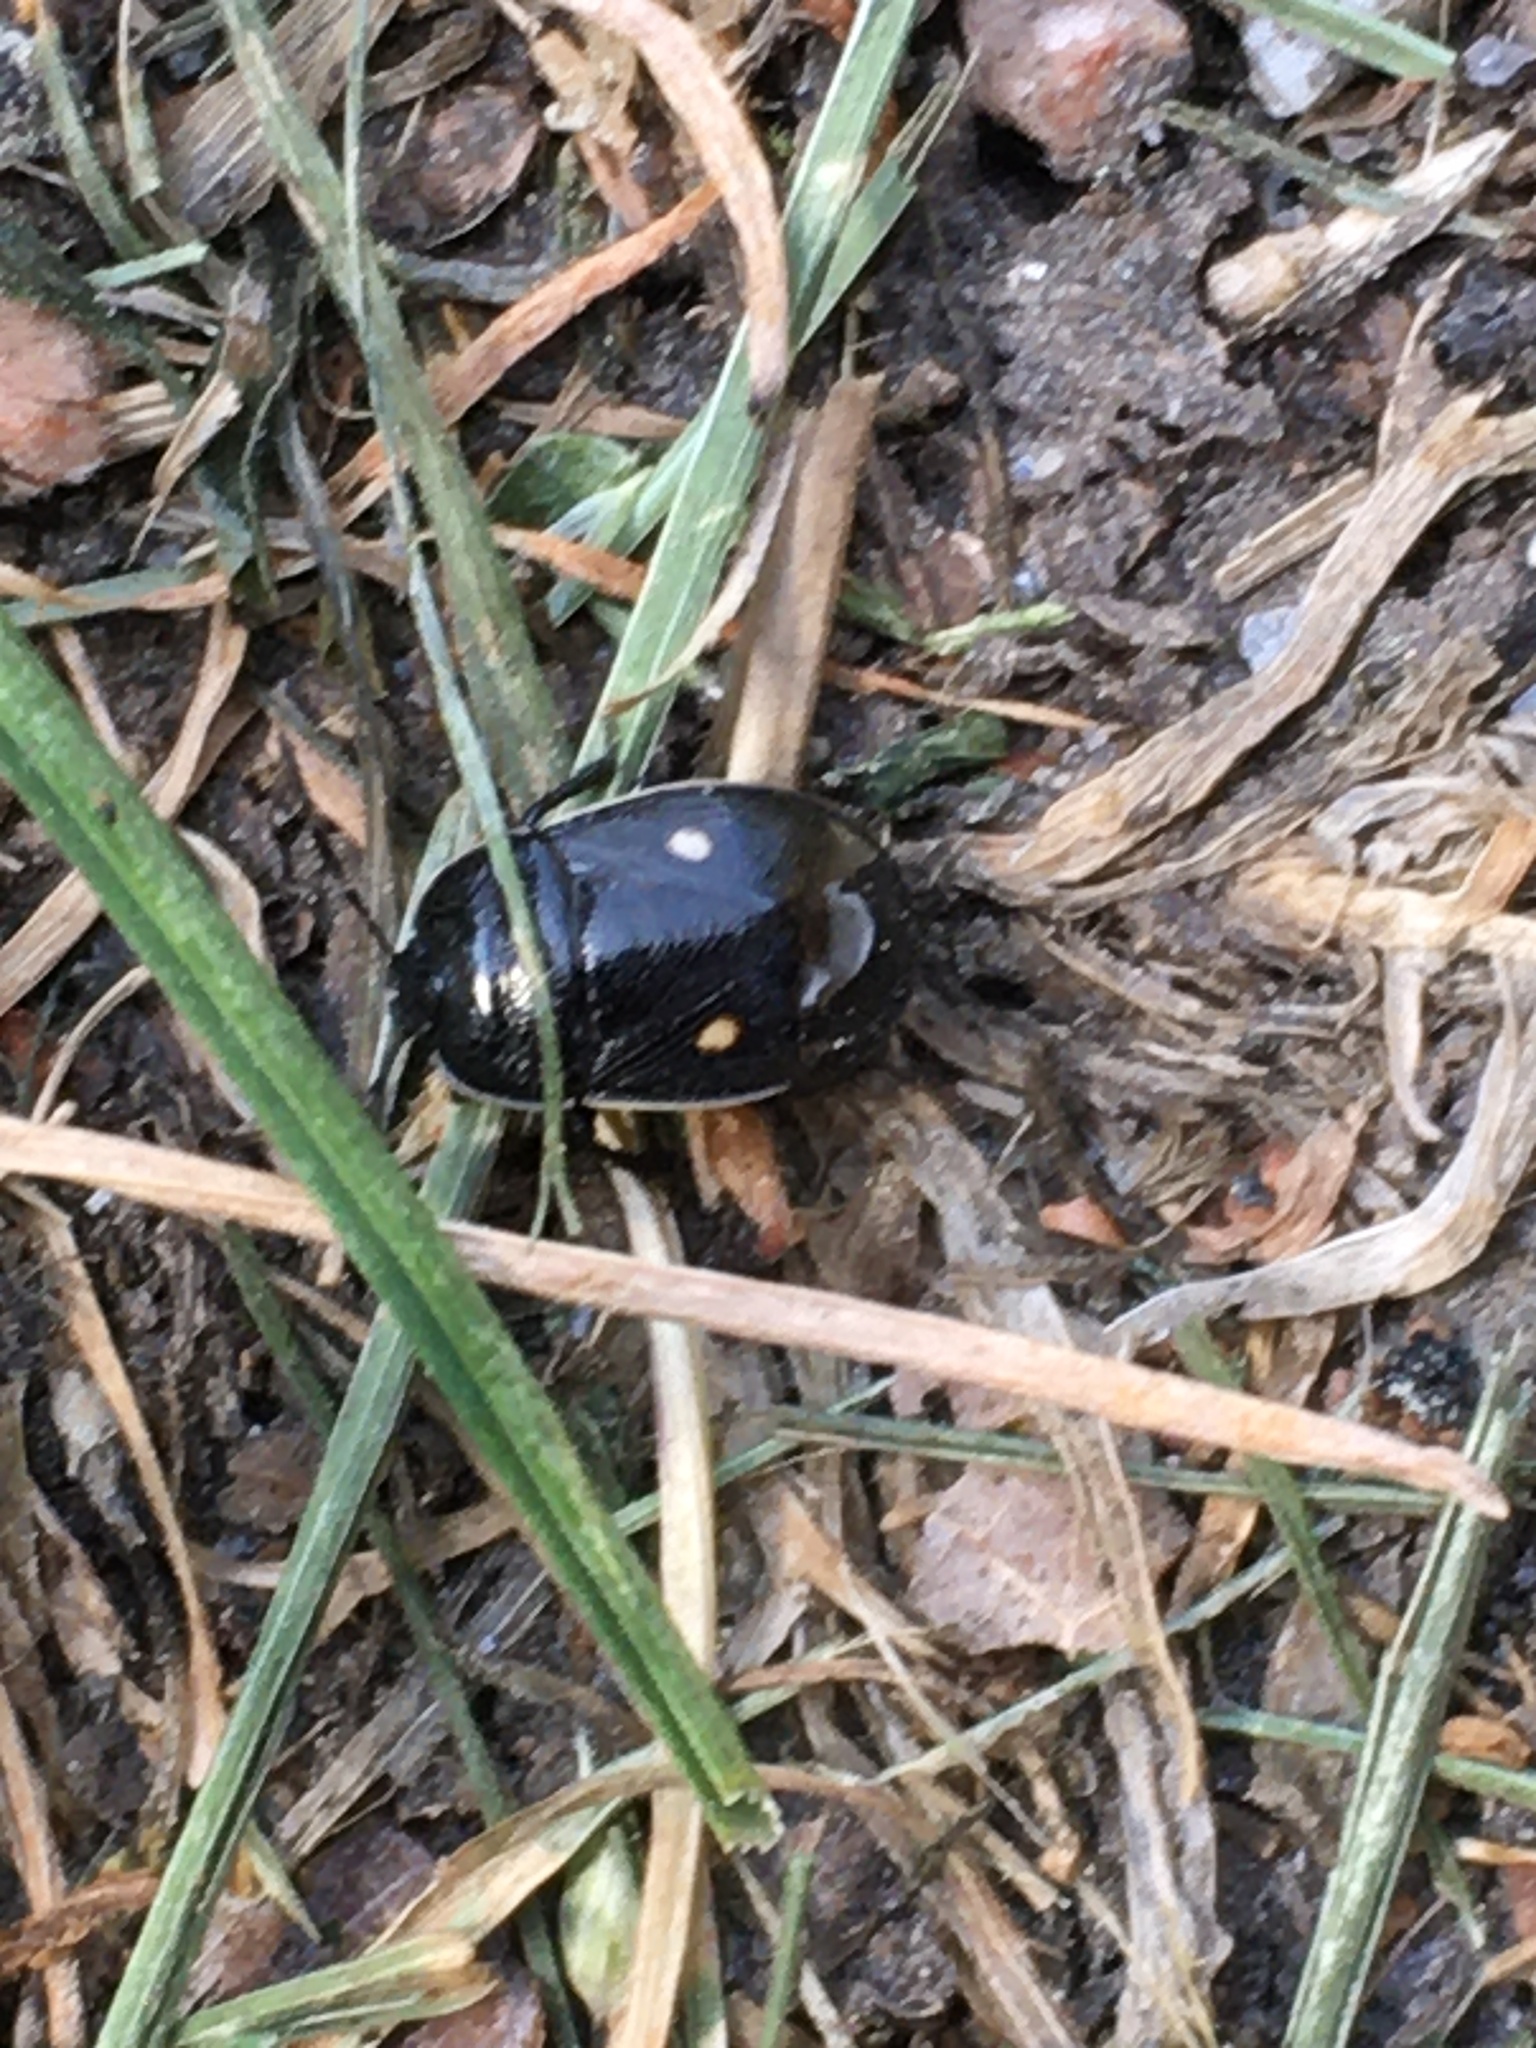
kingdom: Animalia
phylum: Arthropoda
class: Insecta
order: Hemiptera
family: Cydnidae
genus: Adomerus
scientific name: Adomerus biguttatus
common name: Cow wheat shieldbug
